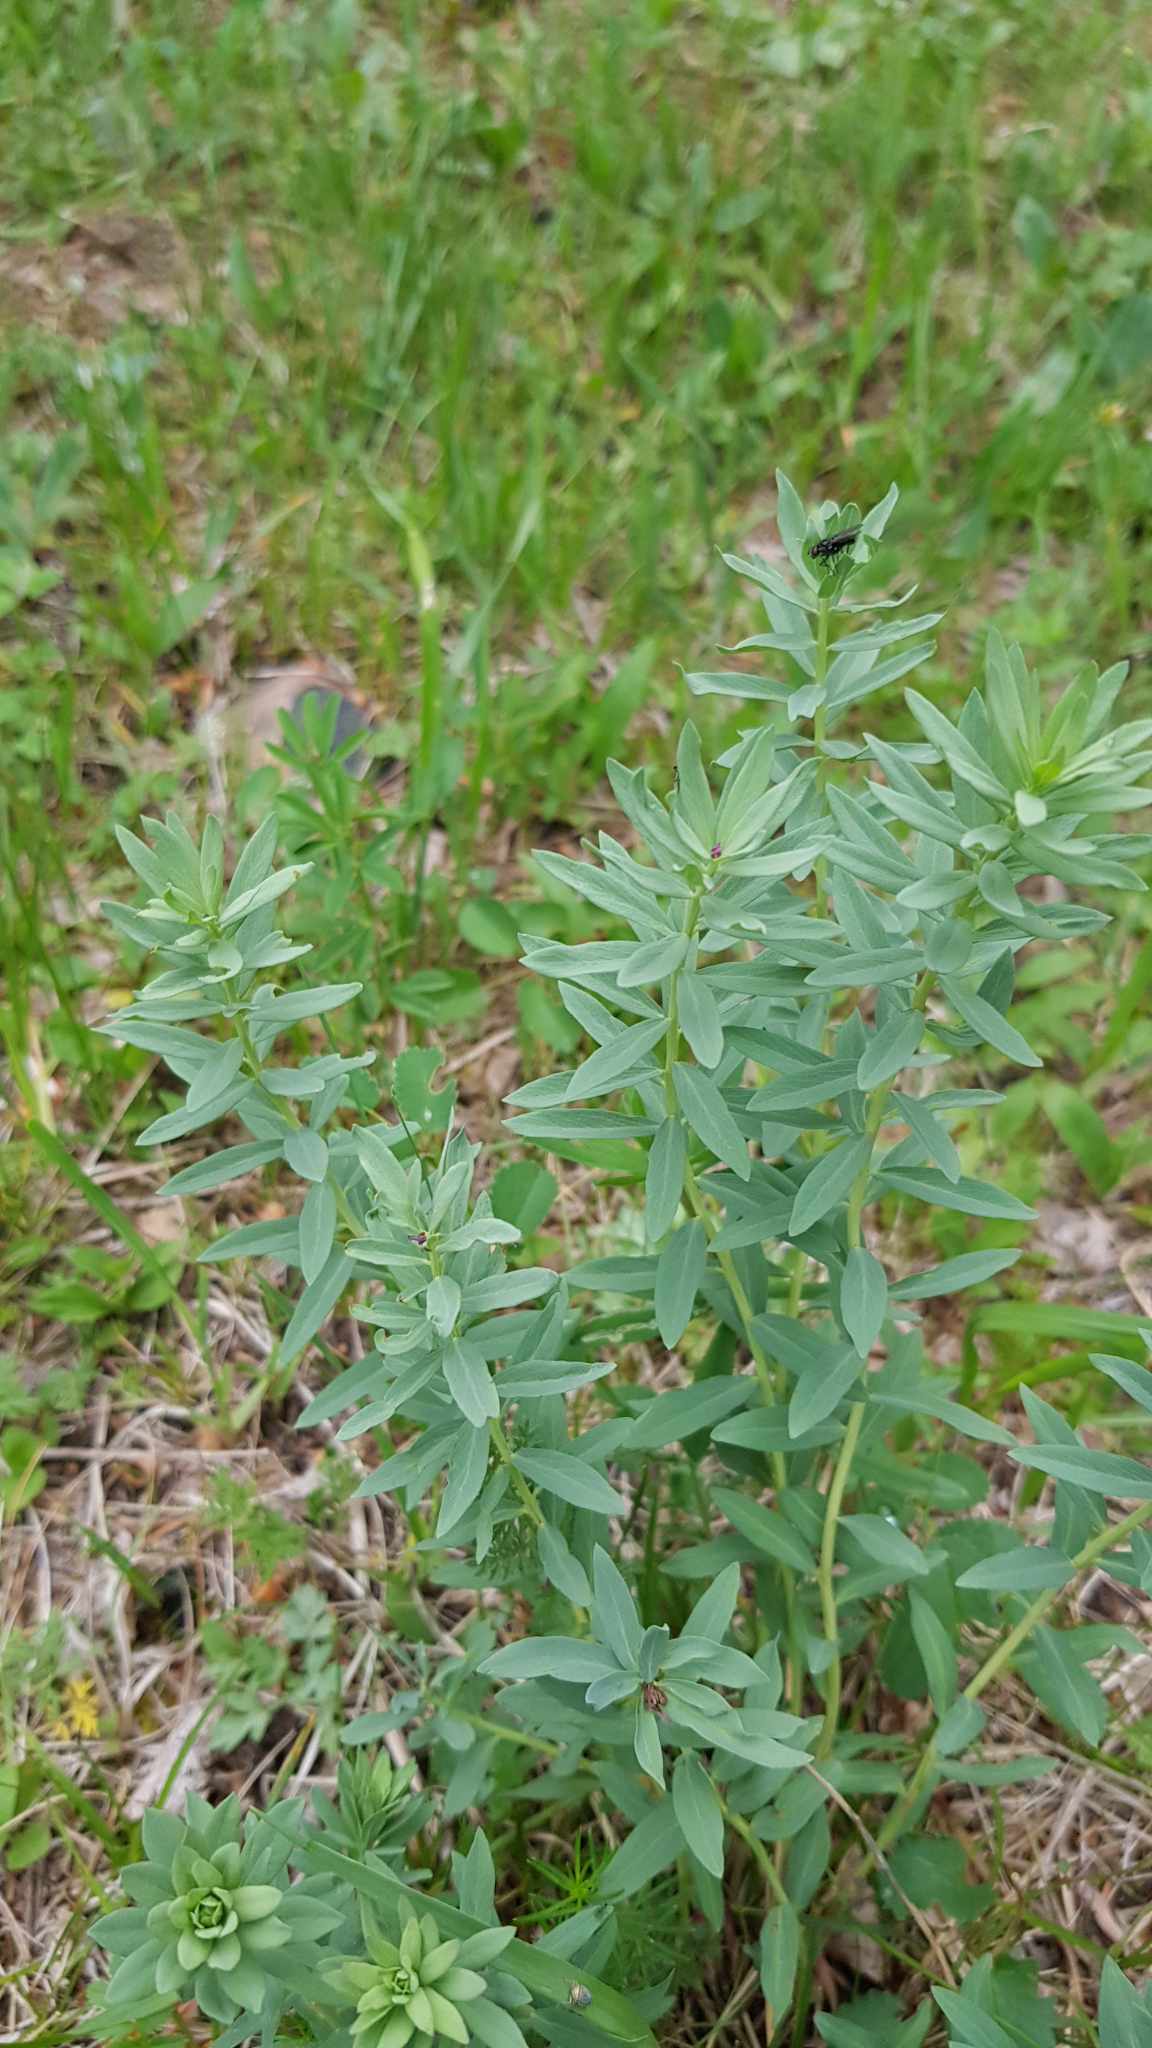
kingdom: Plantae
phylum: Tracheophyta
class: Magnoliopsida
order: Malvales
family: Thymelaeaceae
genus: Stellera
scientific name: Stellera chamaejasme
